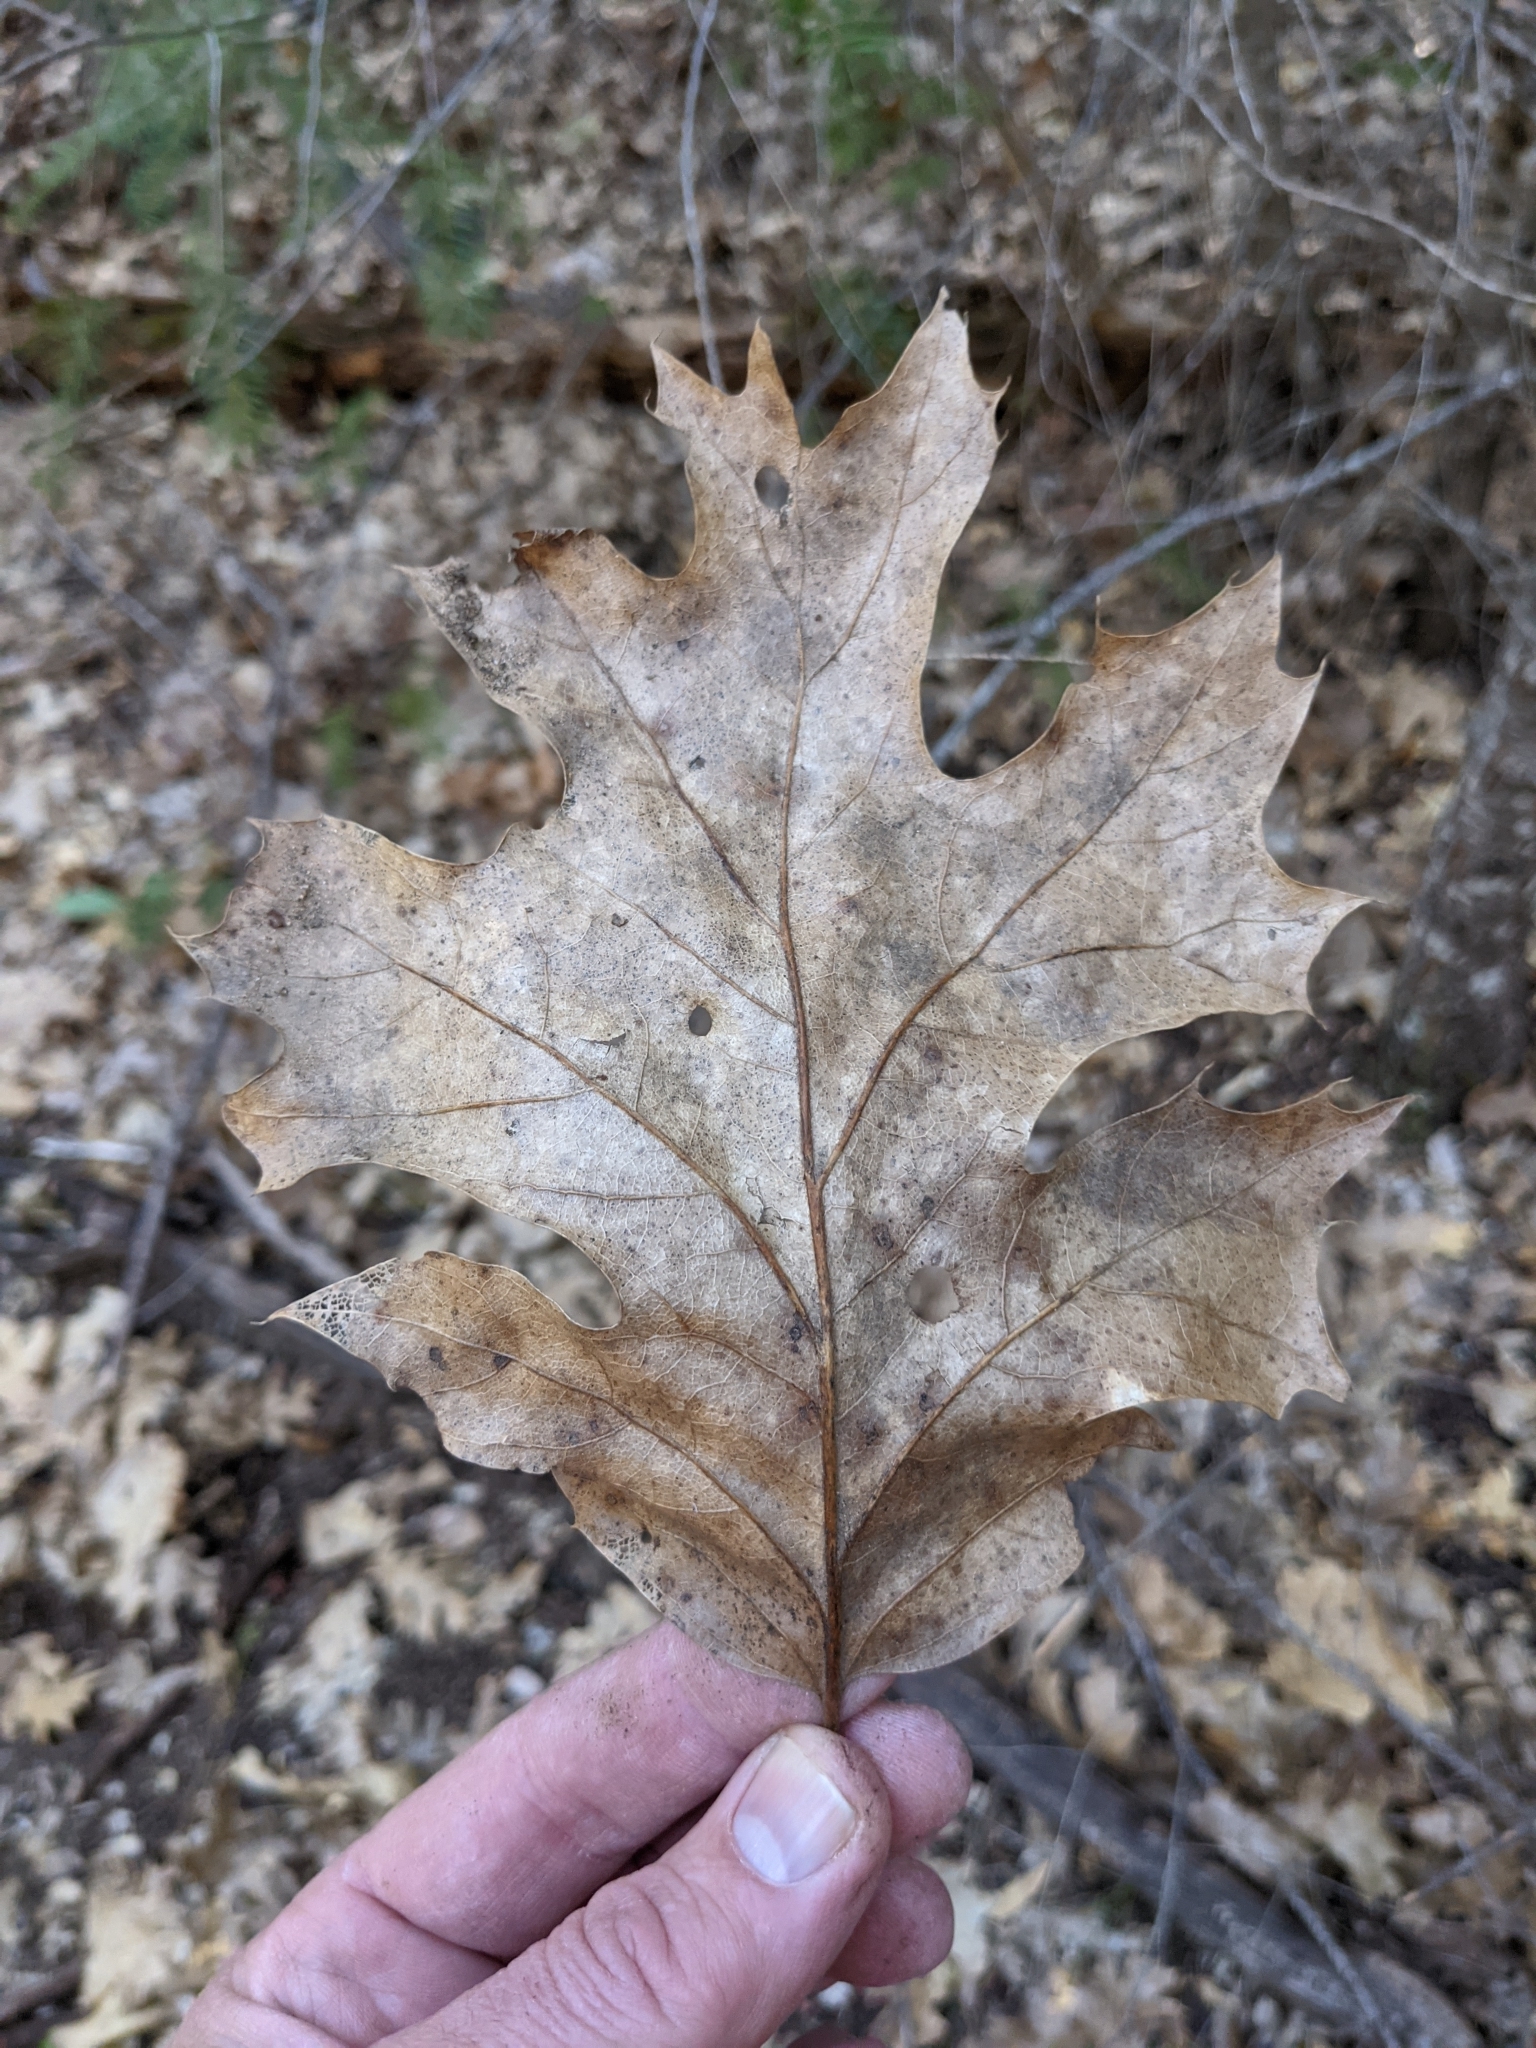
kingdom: Plantae
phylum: Tracheophyta
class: Magnoliopsida
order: Fagales
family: Fagaceae
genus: Quercus
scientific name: Quercus kelloggii
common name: California black oak
